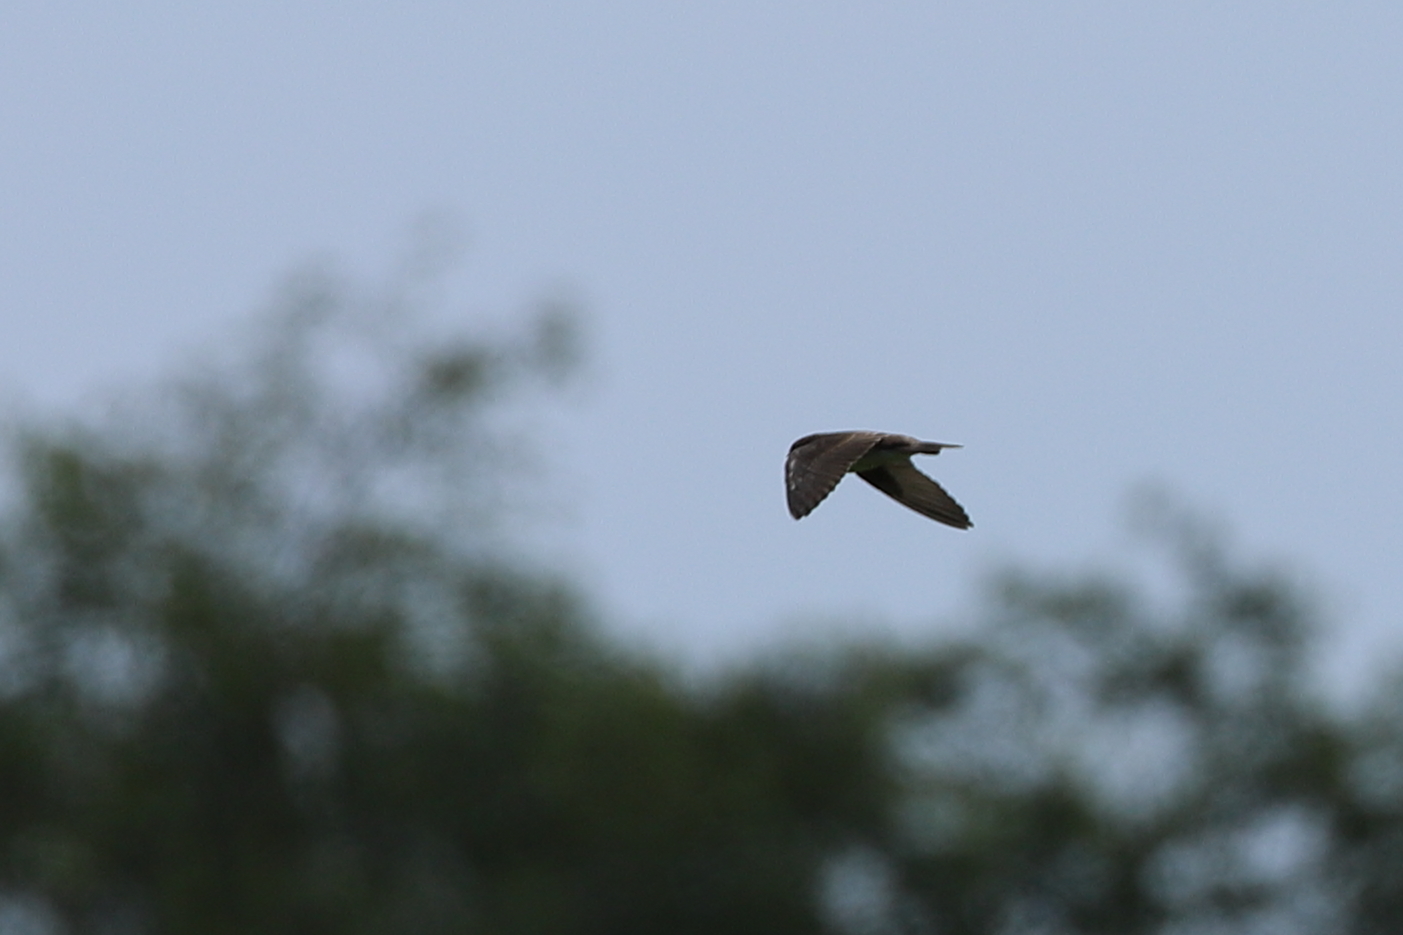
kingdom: Animalia
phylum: Chordata
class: Aves
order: Apodiformes
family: Apodidae
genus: Chaetura
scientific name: Chaetura pelagica
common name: Chimney swift
